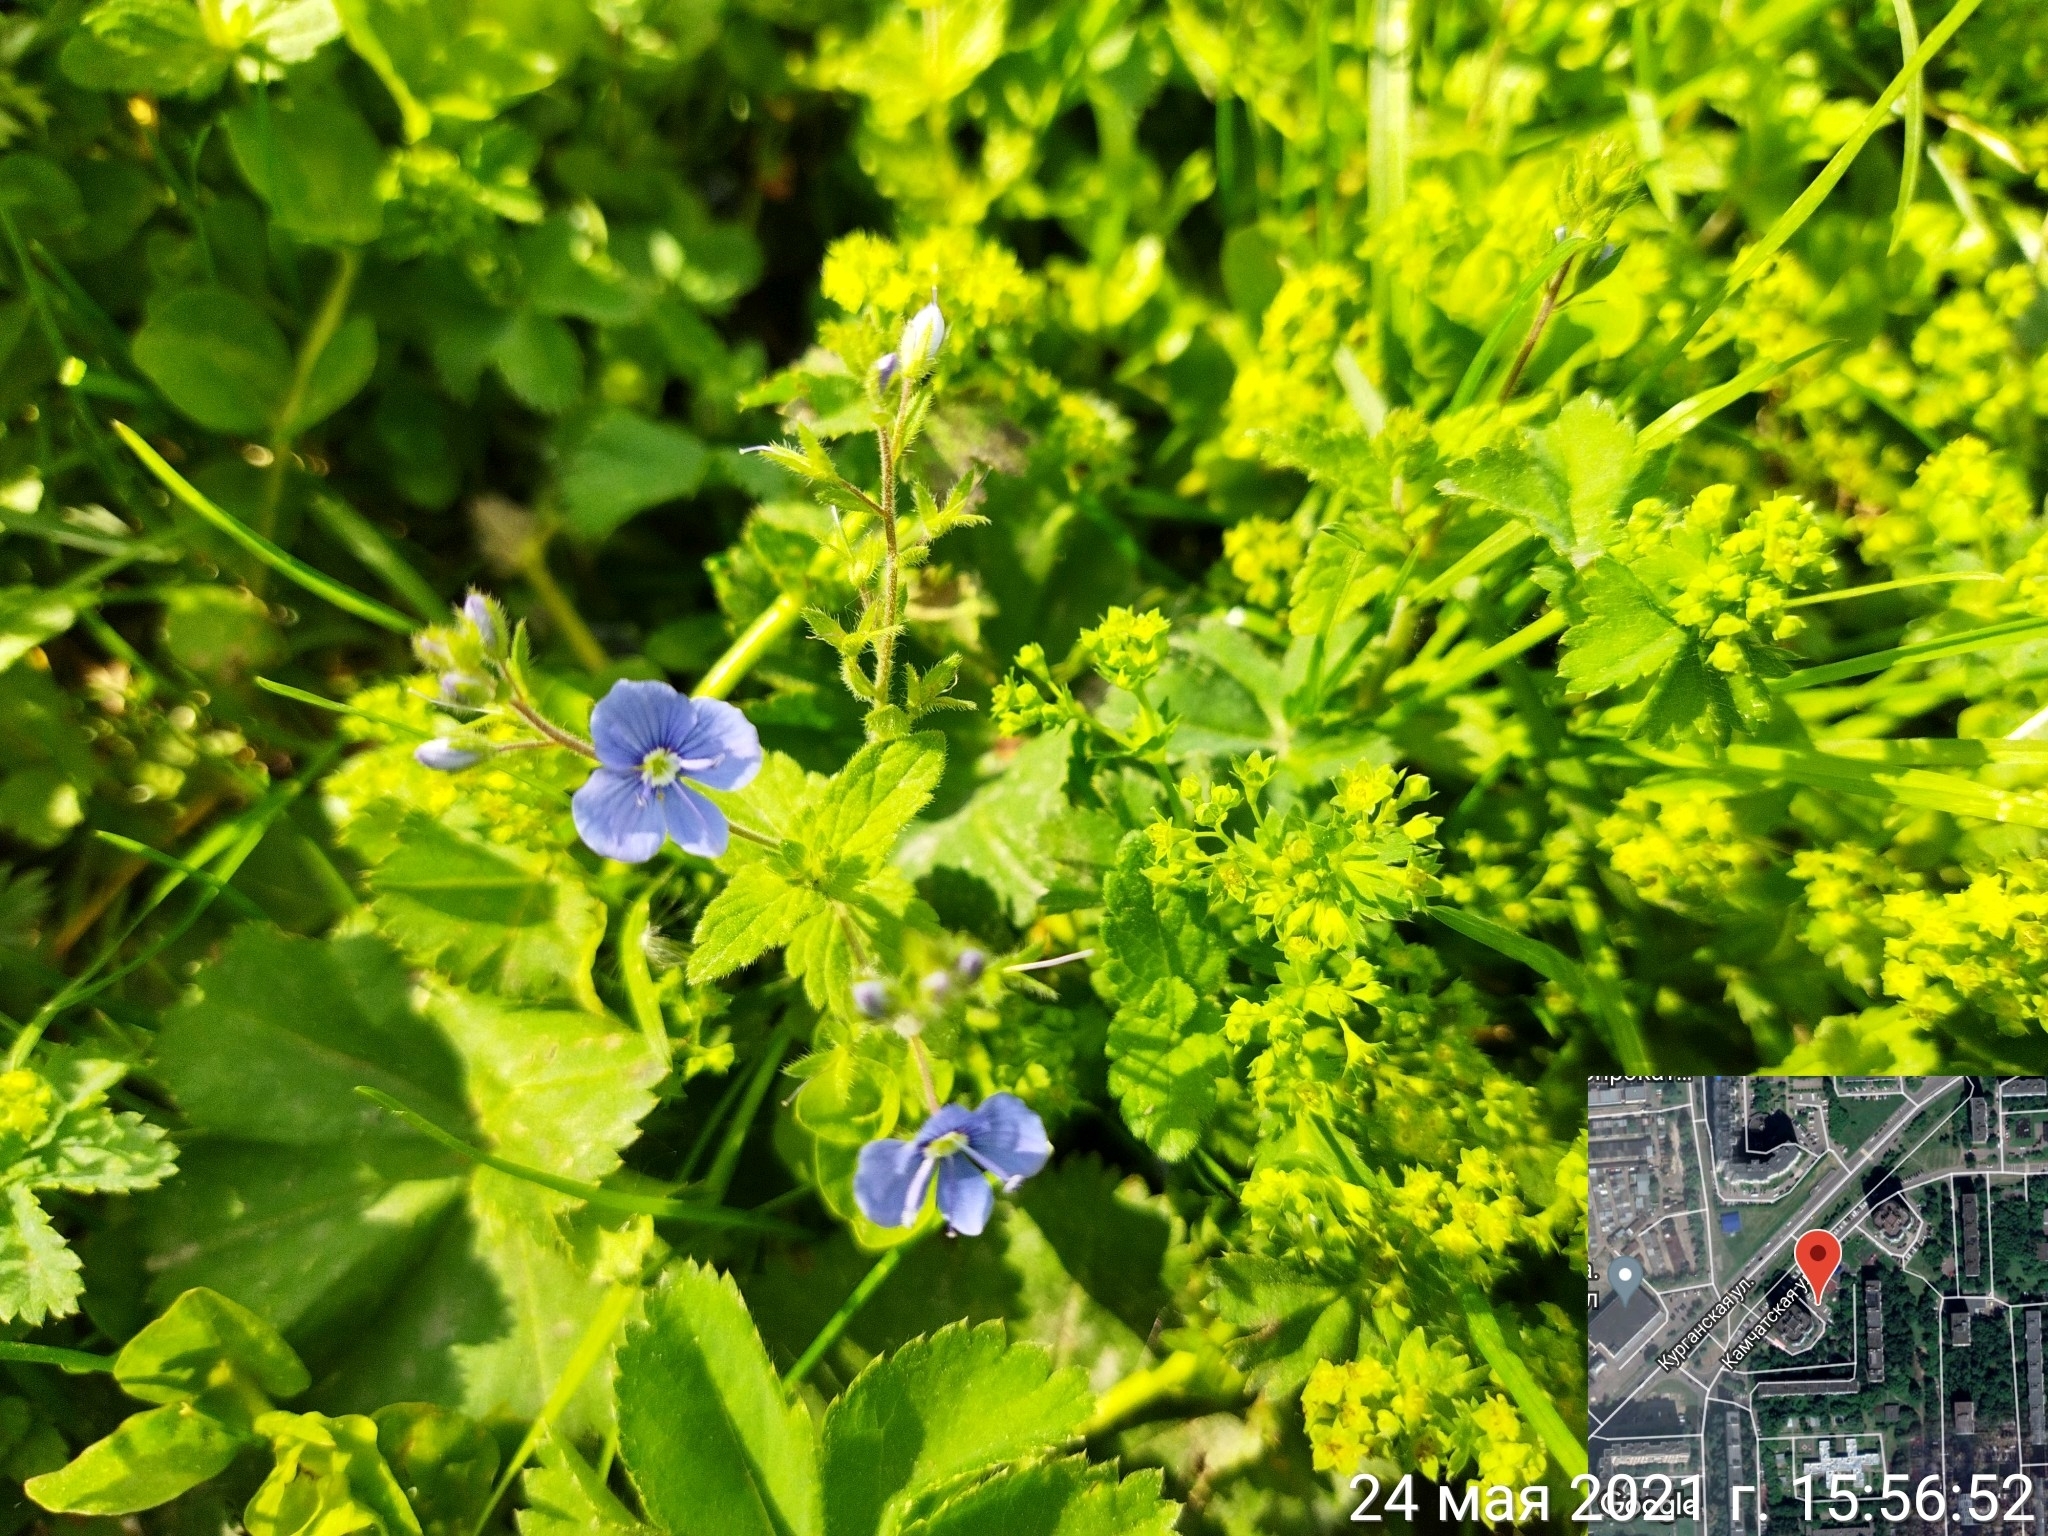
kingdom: Plantae
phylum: Tracheophyta
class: Magnoliopsida
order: Lamiales
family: Plantaginaceae
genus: Veronica
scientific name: Veronica chamaedrys
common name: Germander speedwell
